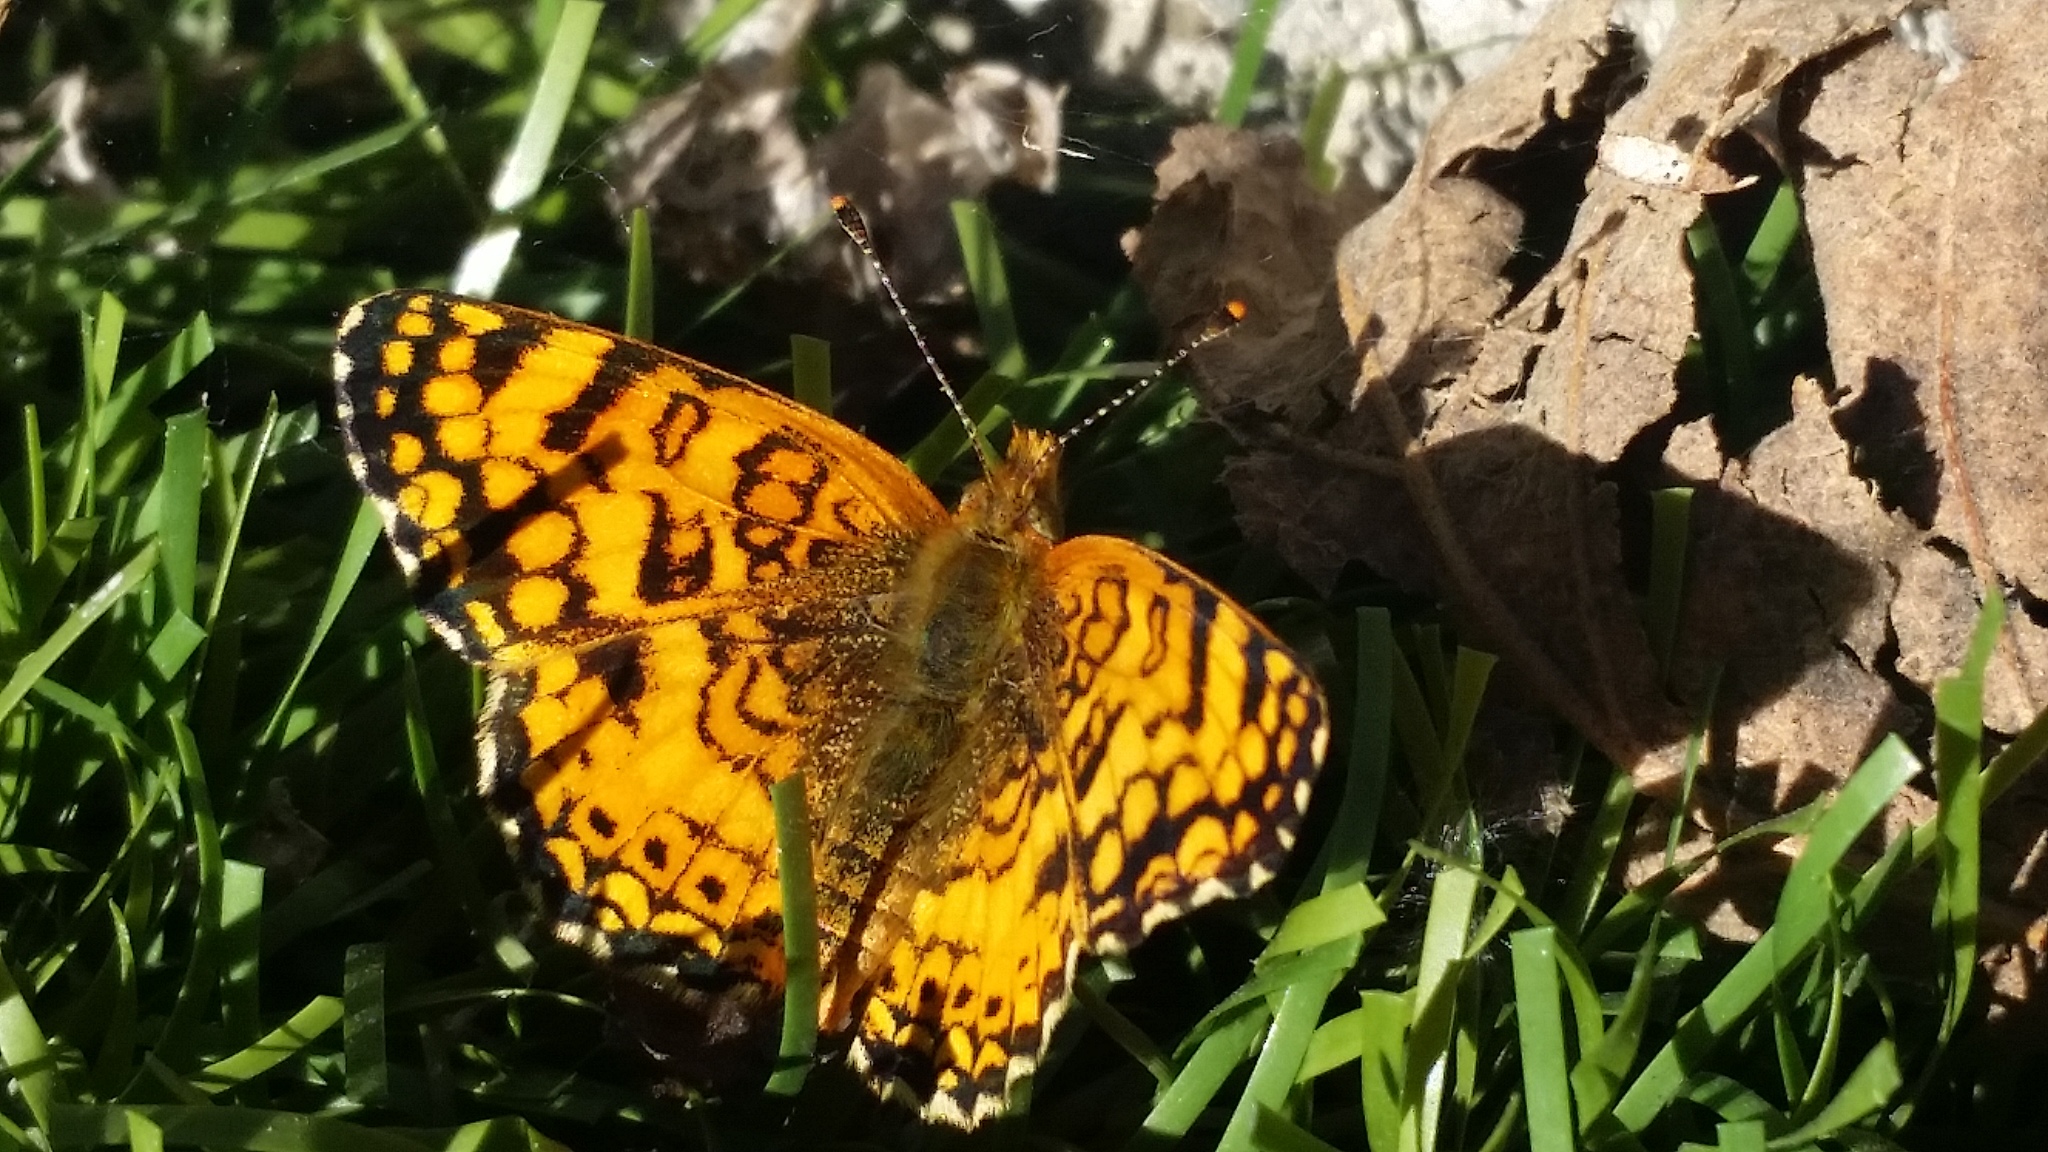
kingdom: Animalia
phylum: Arthropoda
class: Insecta
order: Lepidoptera
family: Nymphalidae
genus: Eresia
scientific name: Eresia aveyrona
